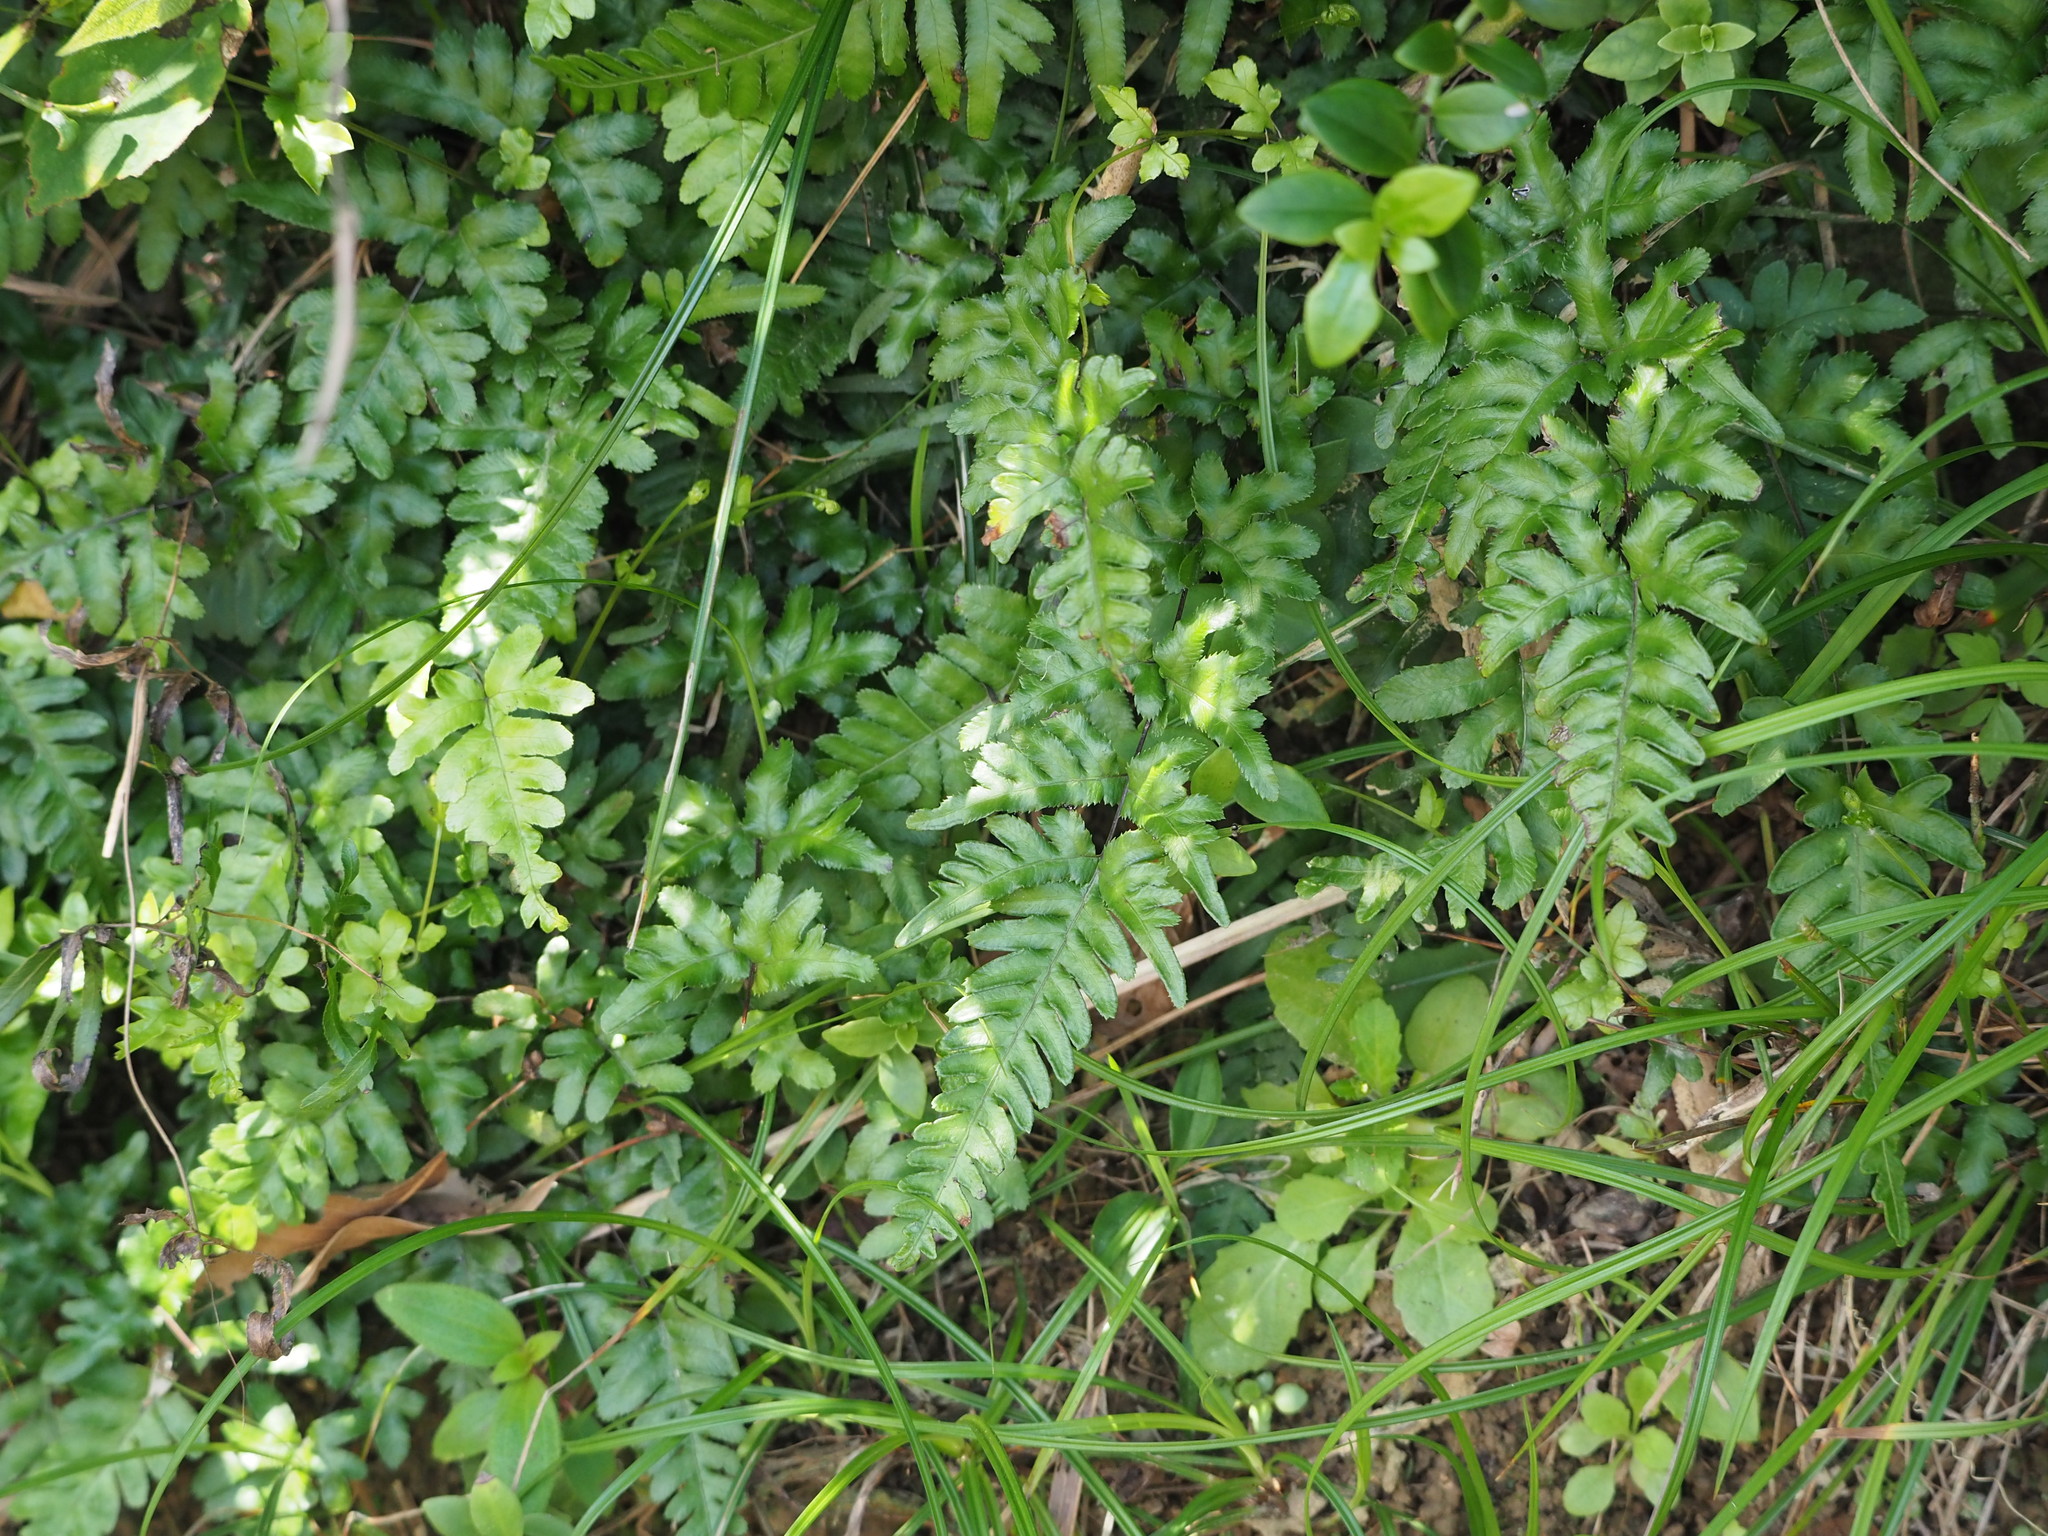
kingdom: Plantae
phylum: Tracheophyta
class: Polypodiopsida
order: Polypodiales
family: Pteridaceae
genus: Pteris
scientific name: Pteris dispar
